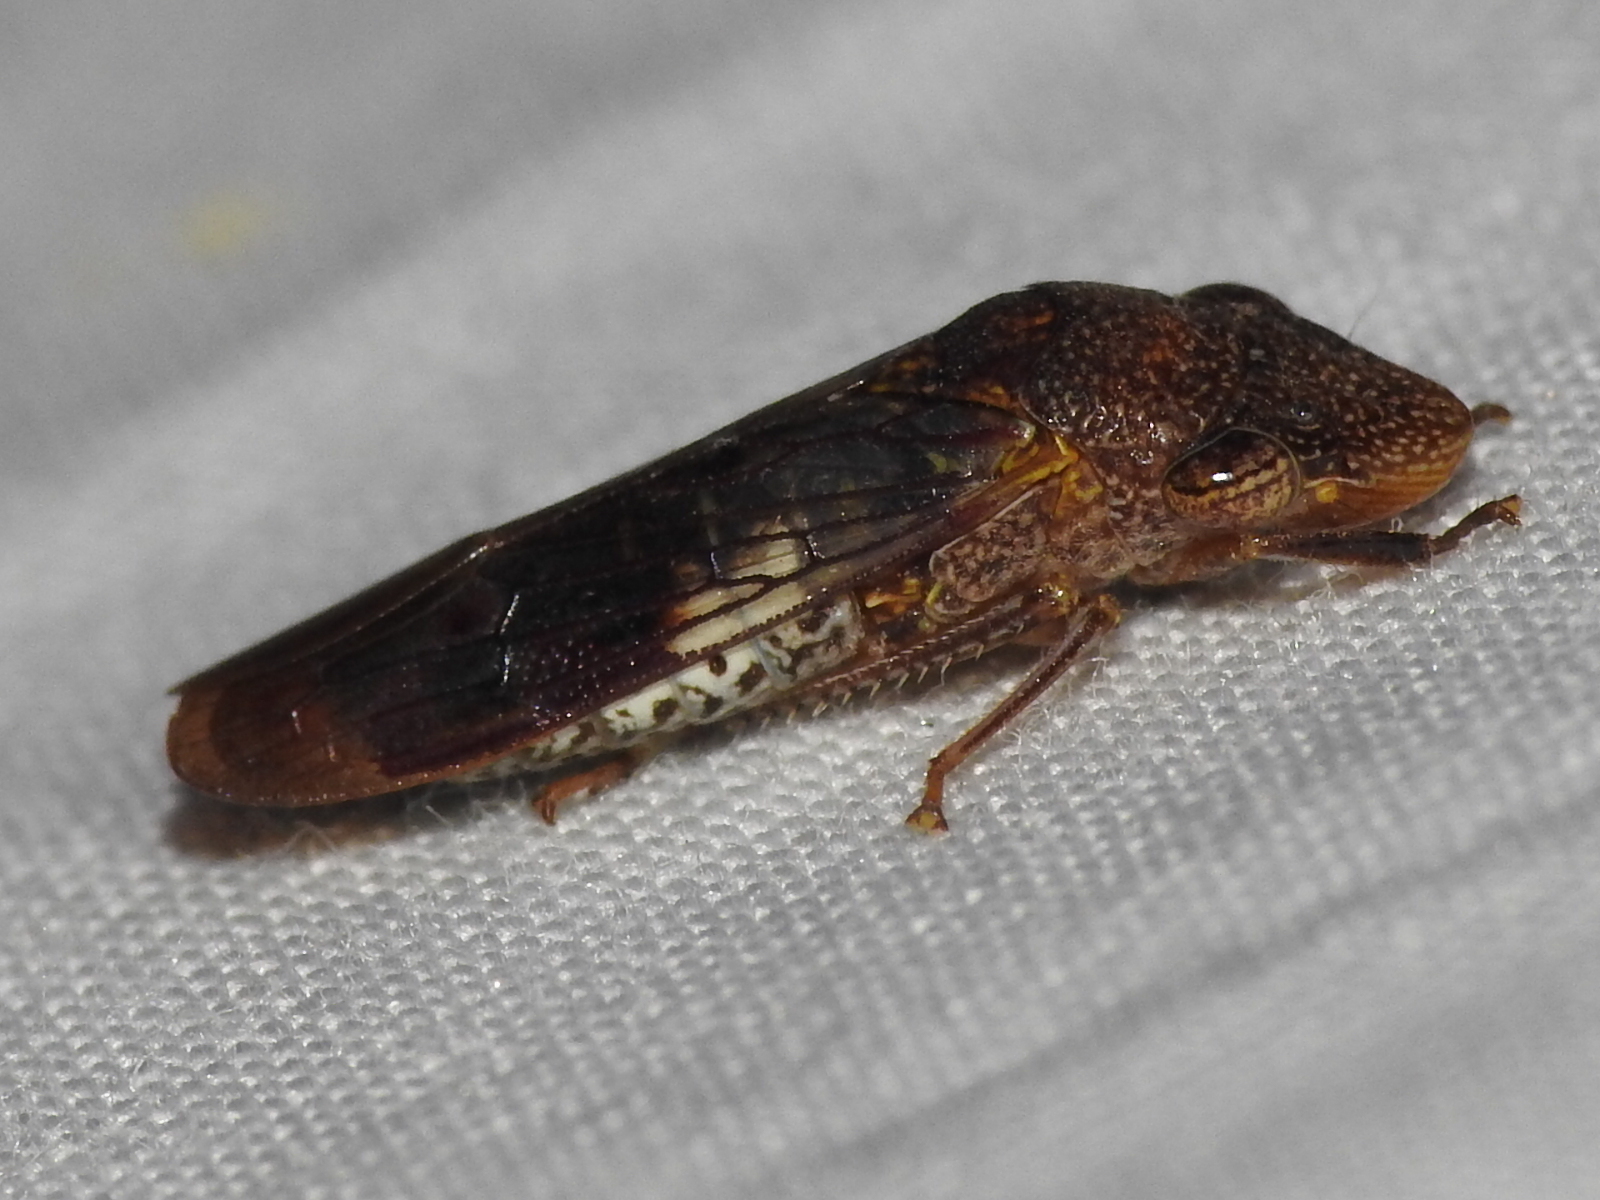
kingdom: Animalia
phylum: Arthropoda
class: Insecta
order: Hemiptera
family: Cicadellidae
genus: Homalodisca
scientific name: Homalodisca vitripennis
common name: Glassy-winged sharpshooter
